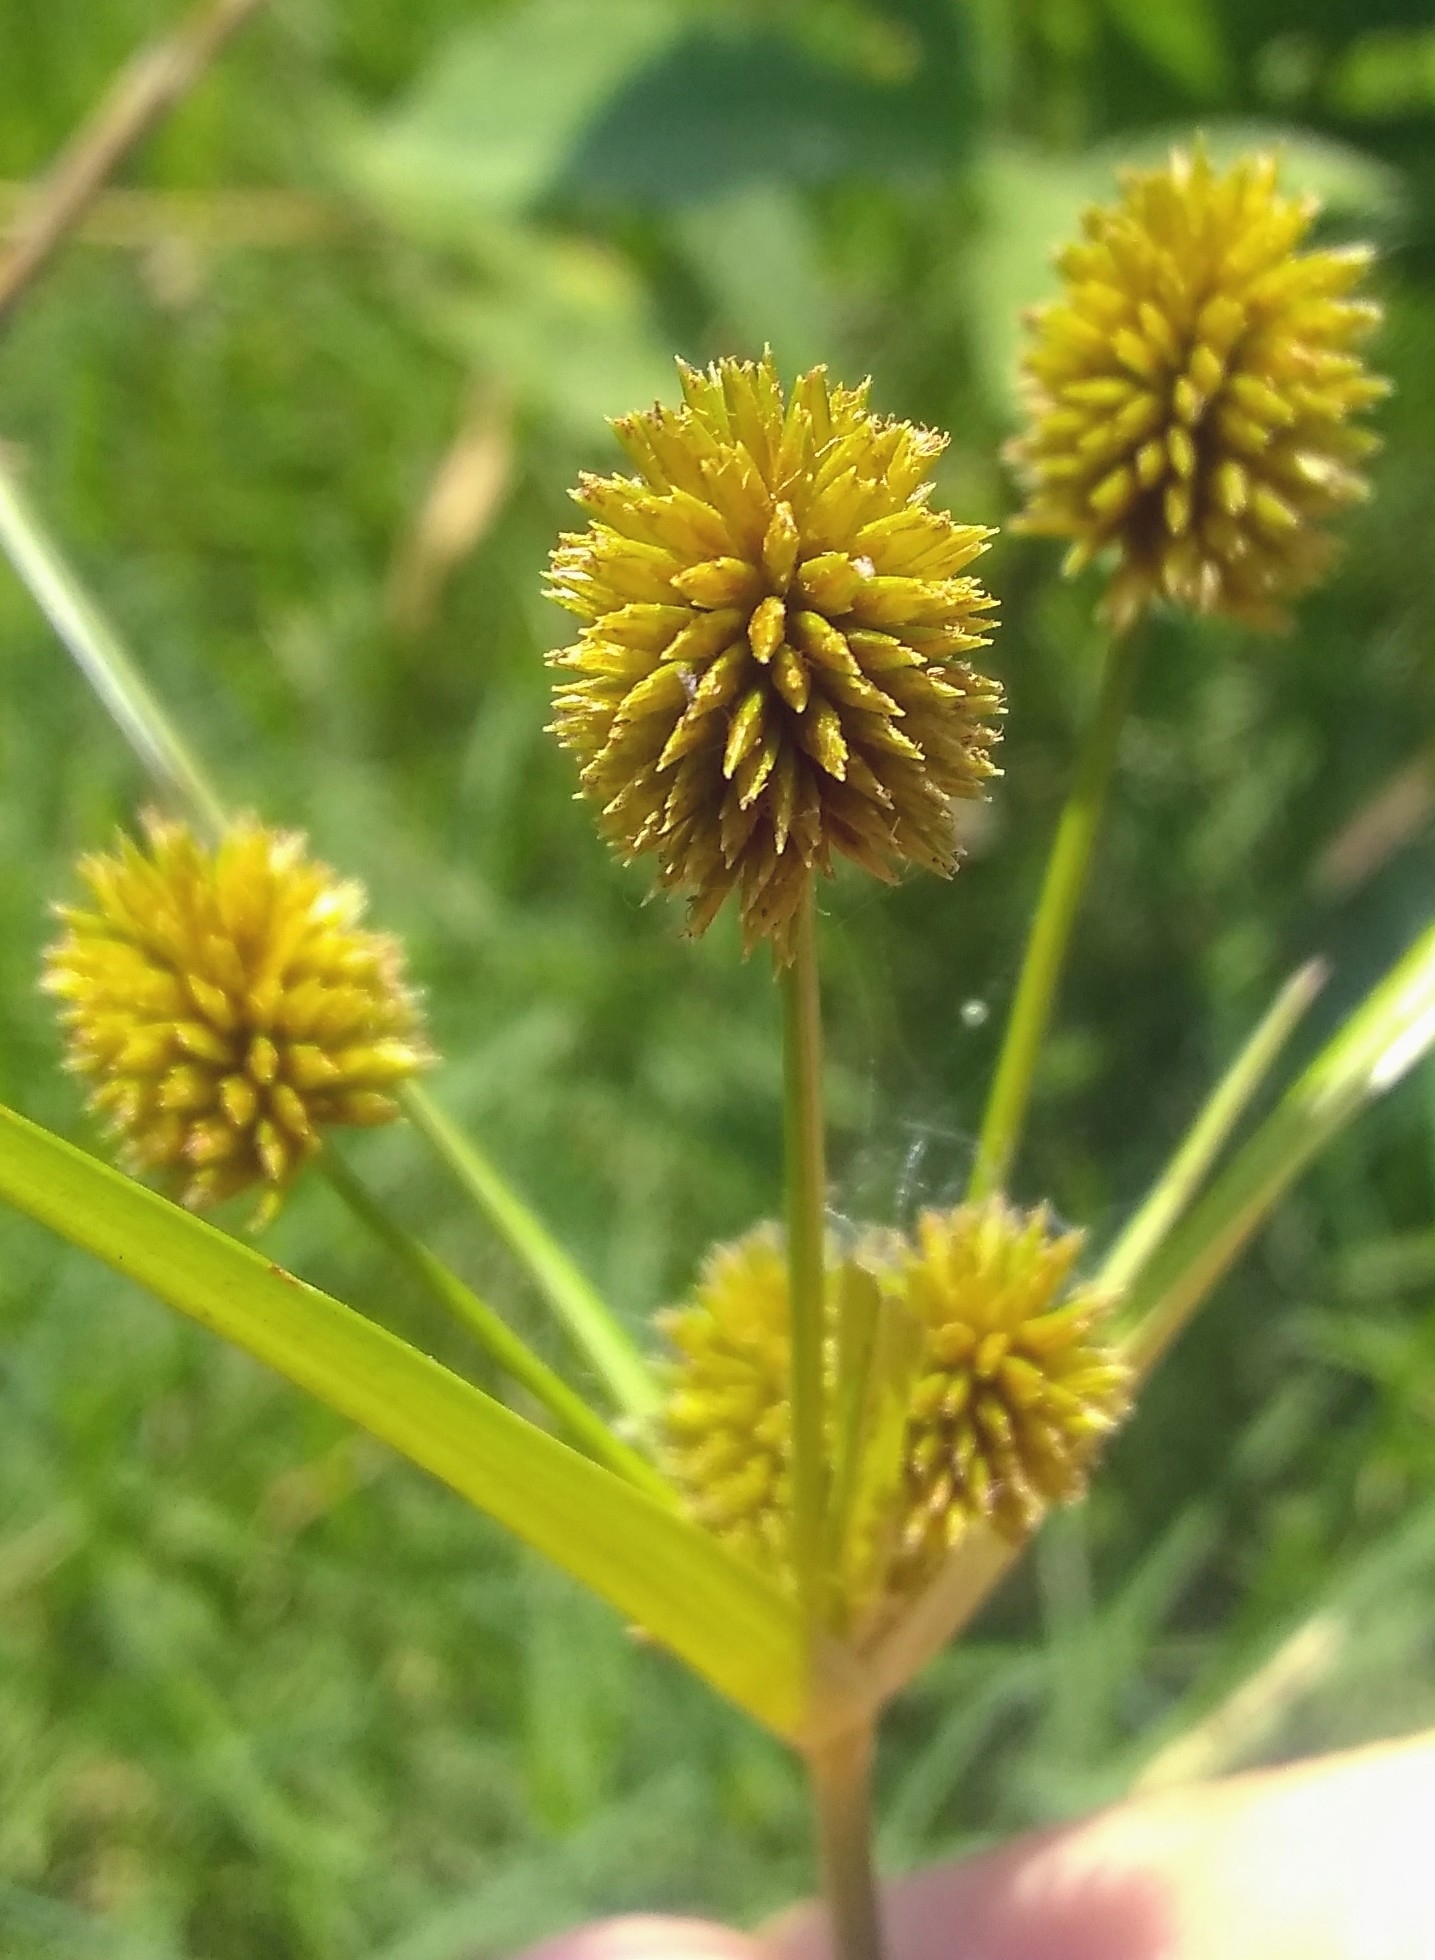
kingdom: Plantae
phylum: Tracheophyta
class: Liliopsida
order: Poales
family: Cyperaceae
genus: Cyperus
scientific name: Cyperus echinatus
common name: Teasel sedge
